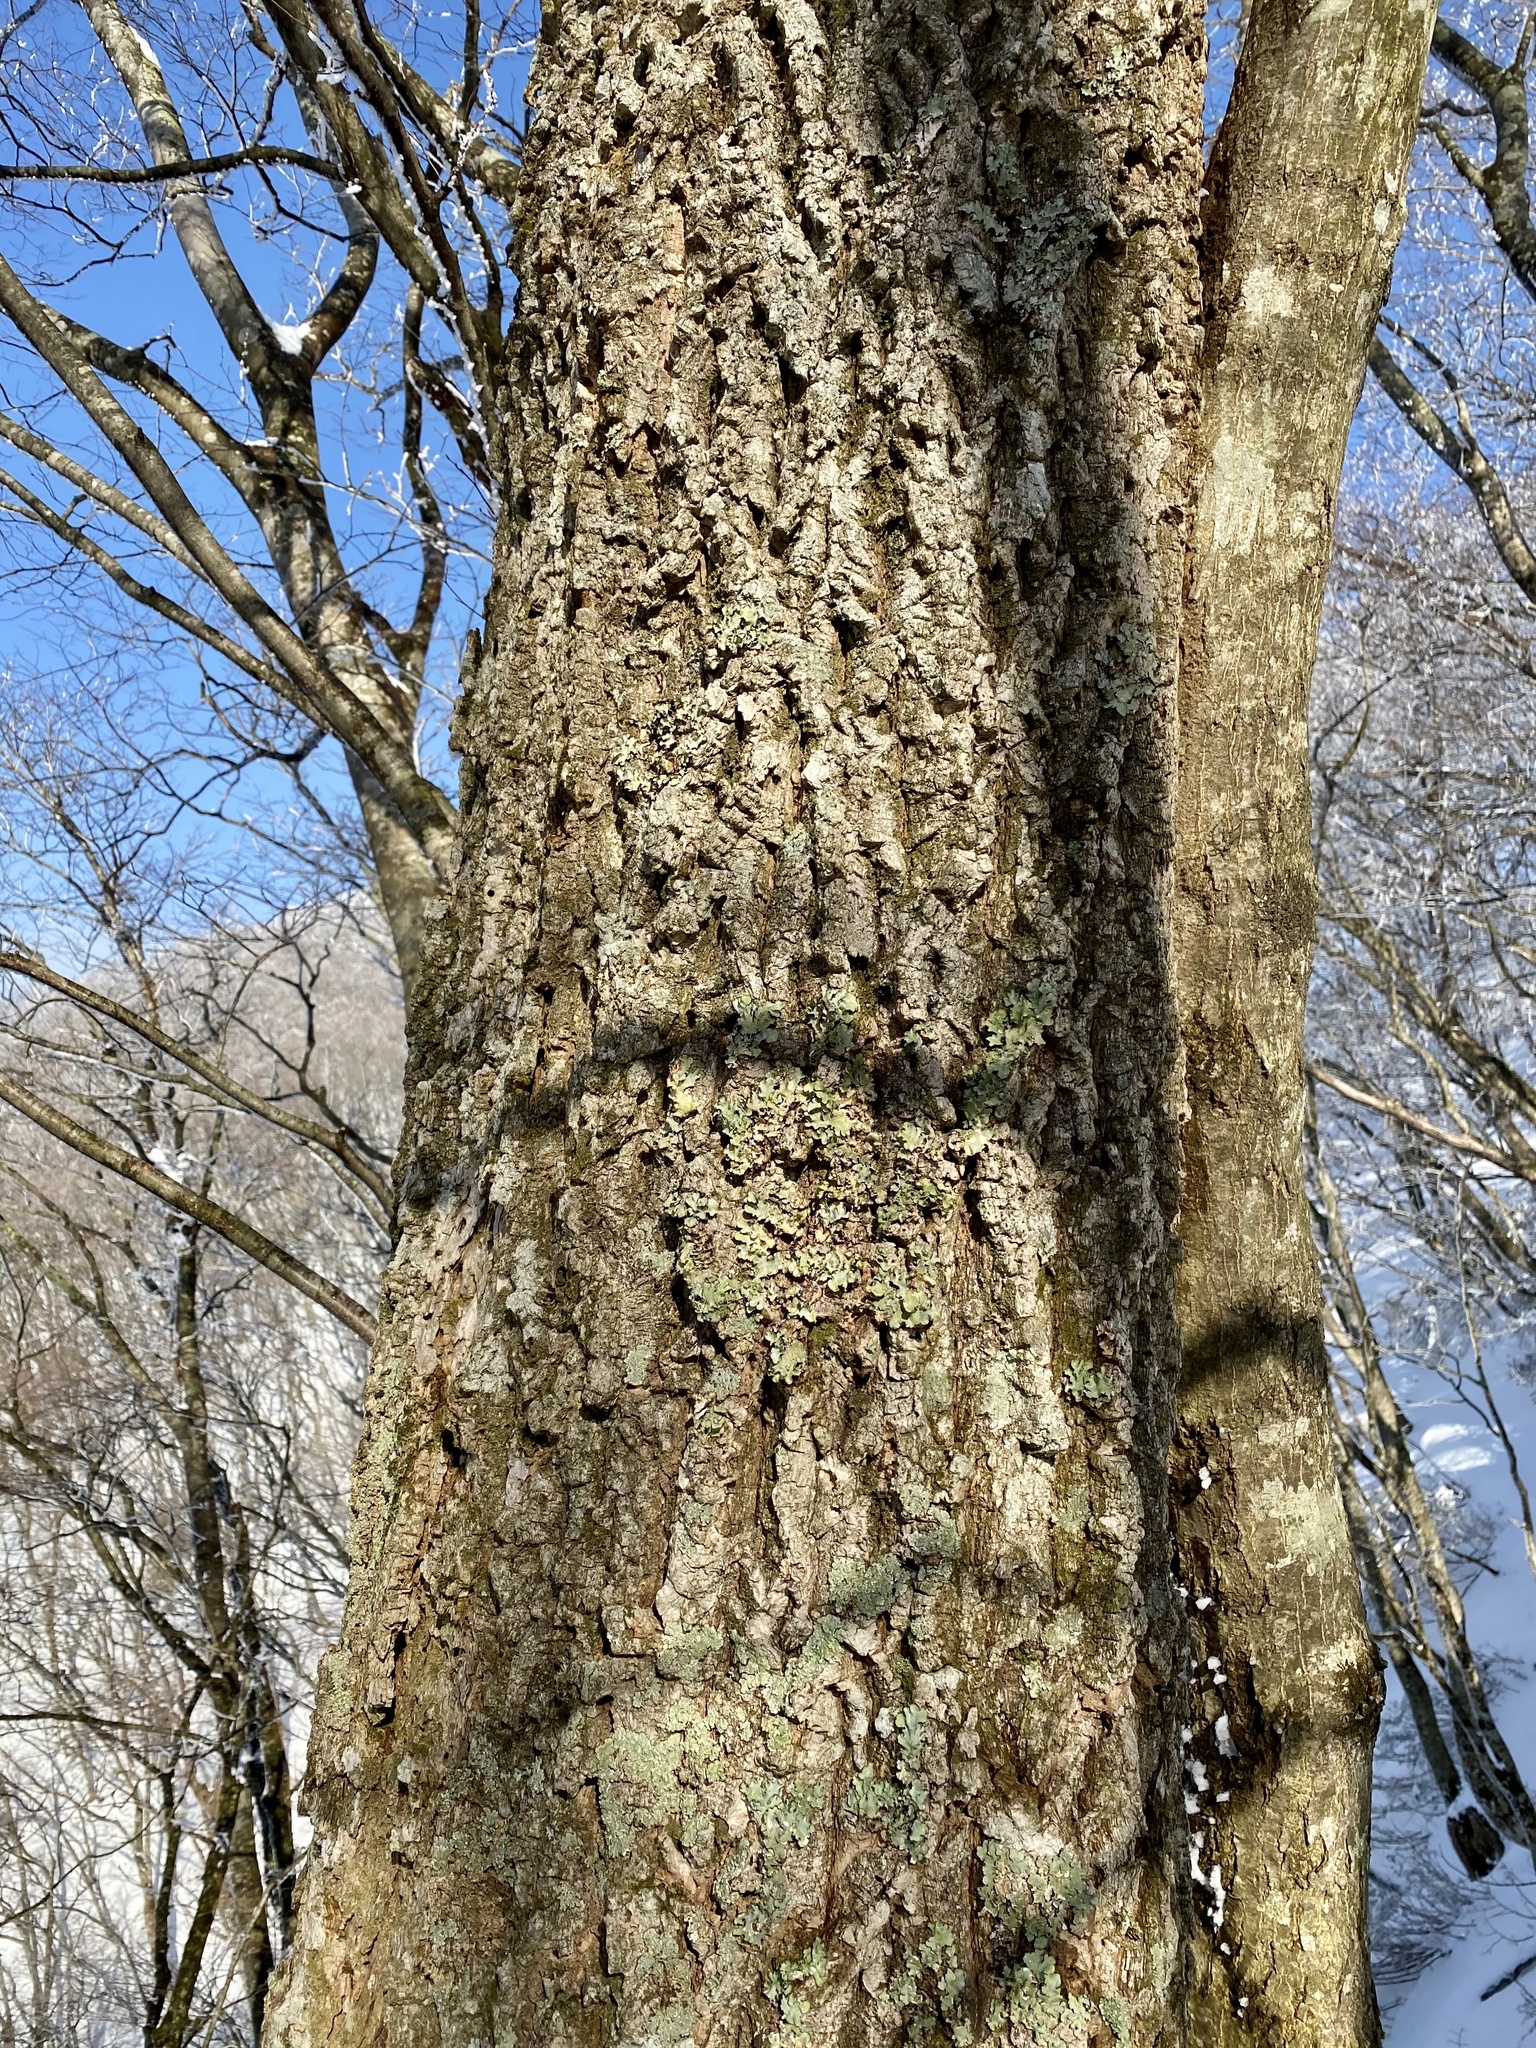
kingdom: Plantae
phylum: Tracheophyta
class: Magnoliopsida
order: Fagales
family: Fagaceae
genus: Quercus
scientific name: Quercus acutissima
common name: Sawtooth oak
